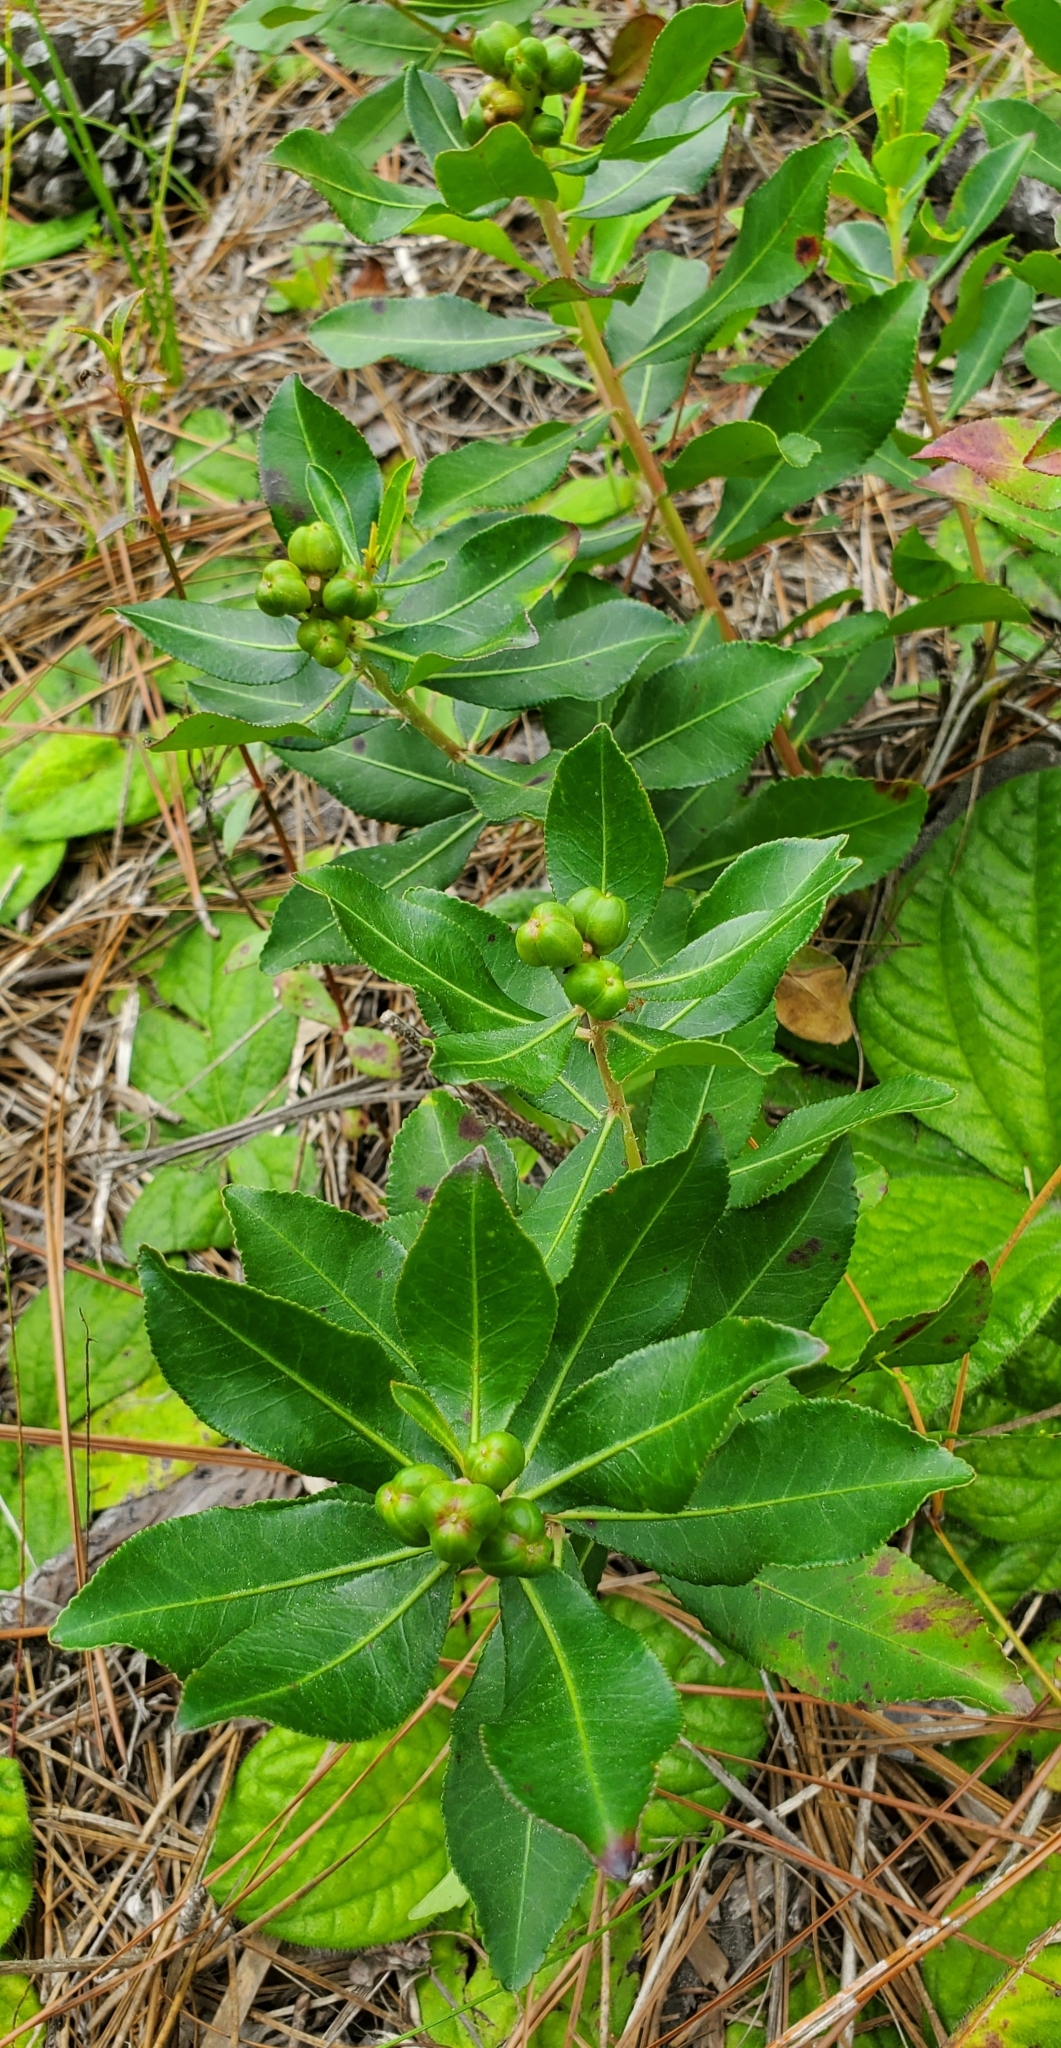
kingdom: Plantae
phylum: Tracheophyta
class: Magnoliopsida
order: Malpighiales
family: Euphorbiaceae
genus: Stillingia
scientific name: Stillingia sylvatica
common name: Queen's-delight
